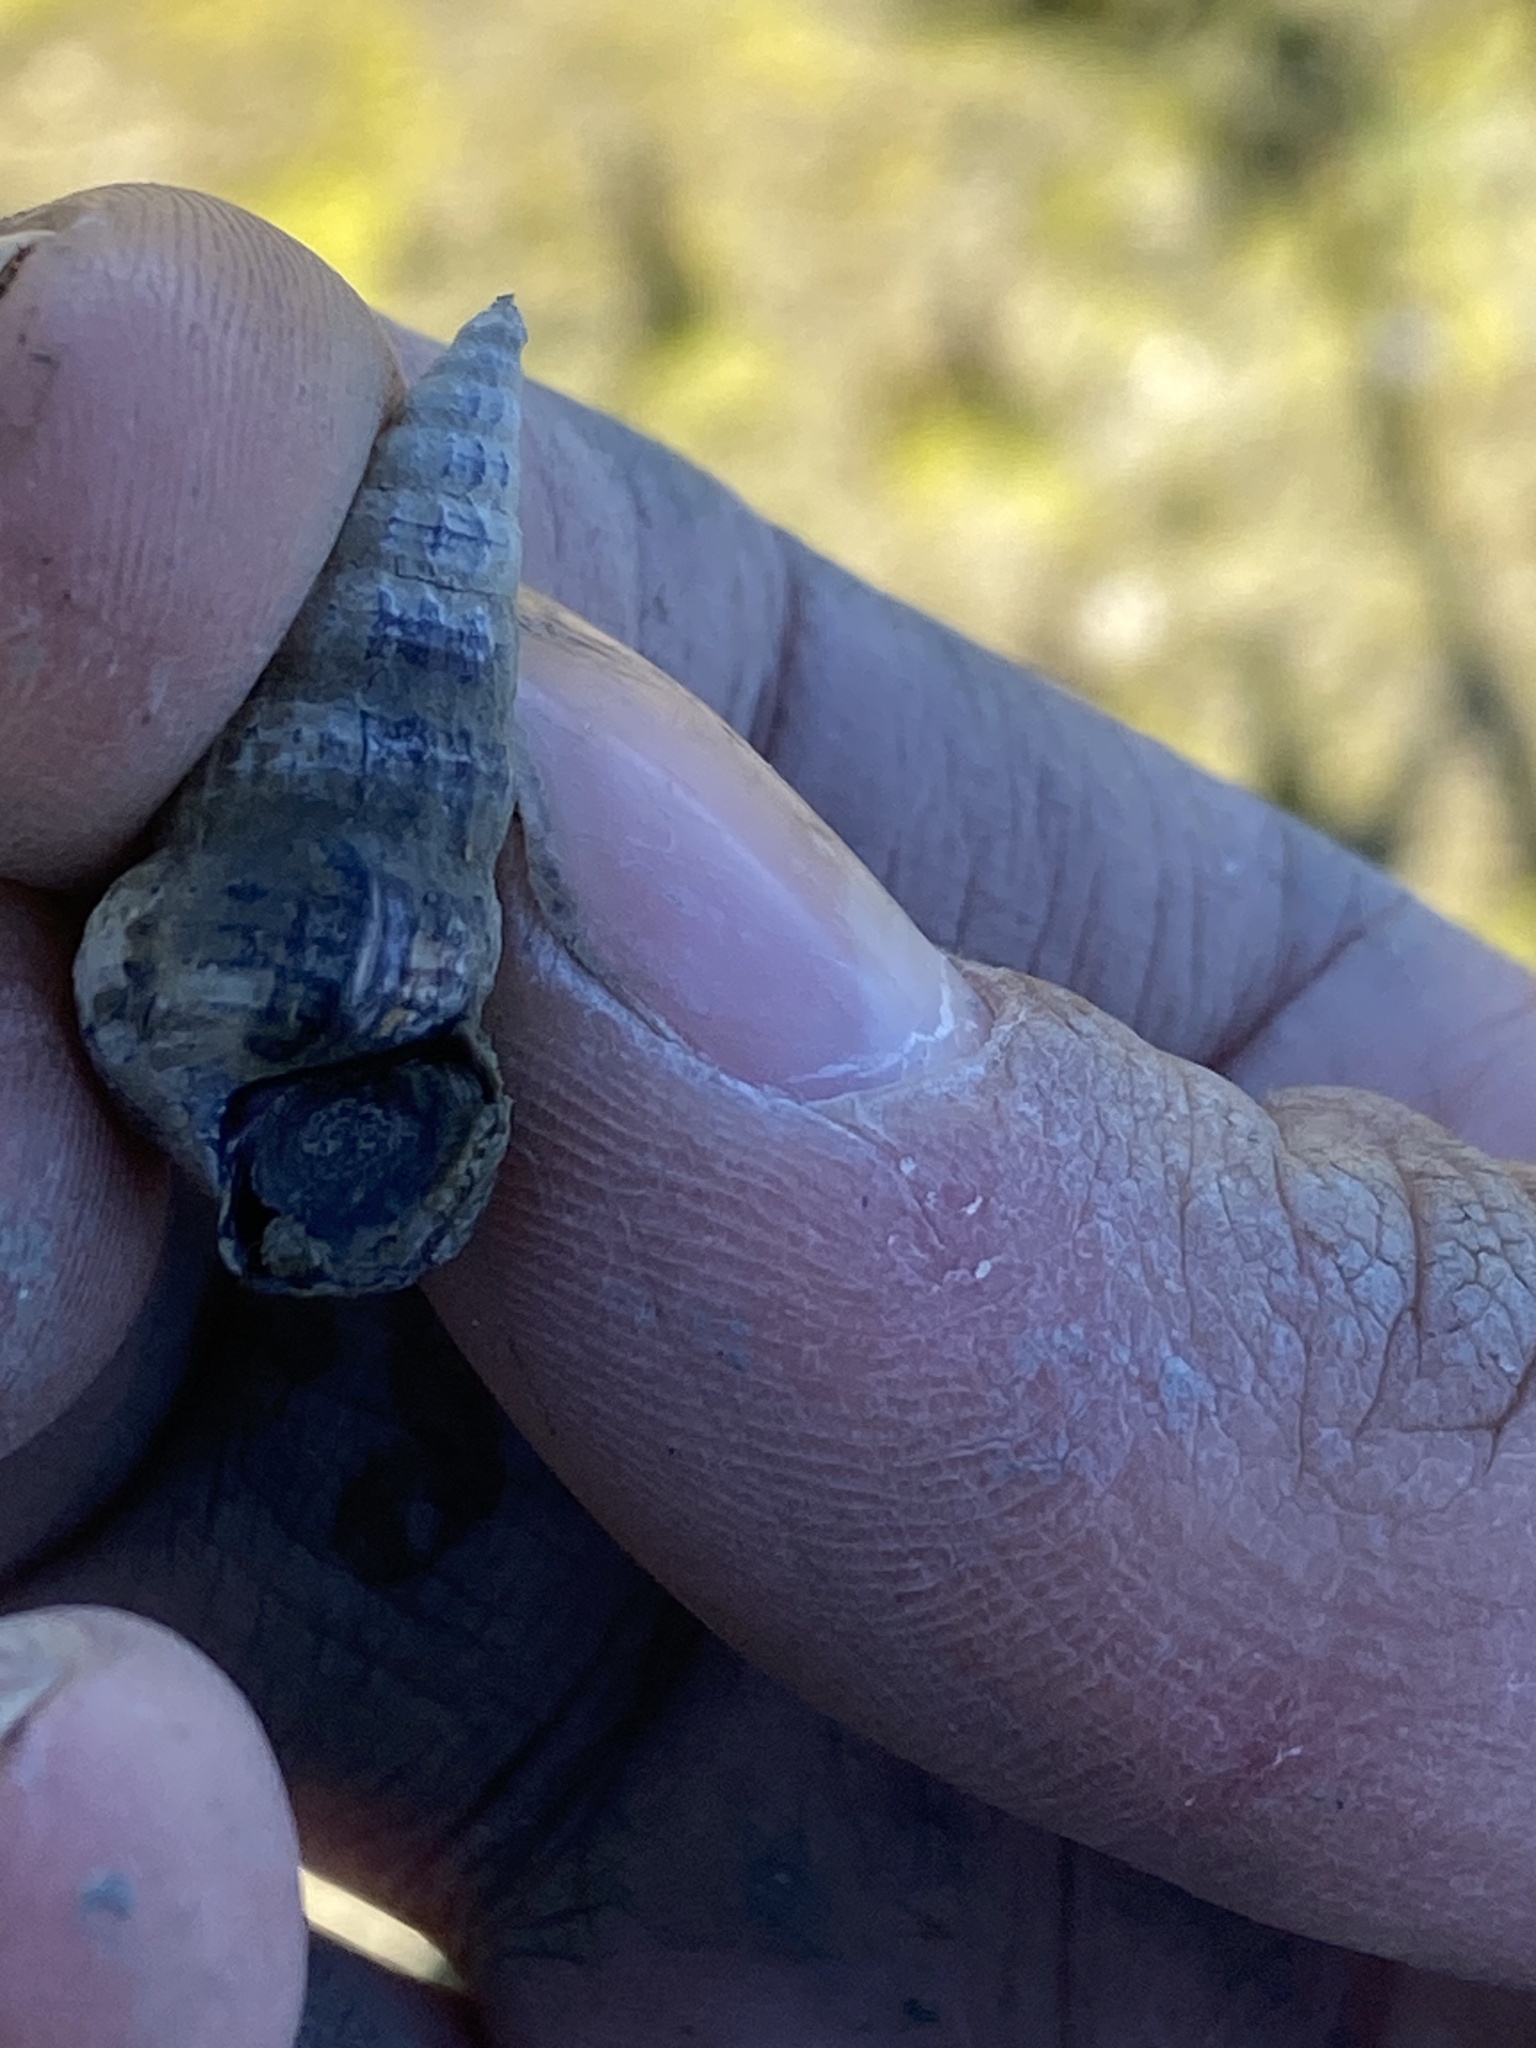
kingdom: Animalia
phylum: Mollusca
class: Gastropoda
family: Potamididae
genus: Cerithideopsis
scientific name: Cerithideopsis californica
